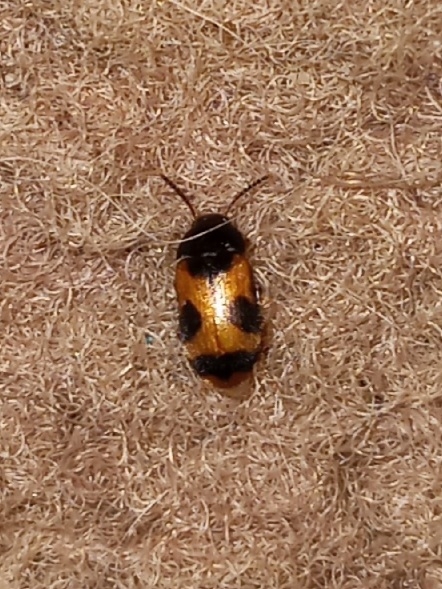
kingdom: Animalia
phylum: Arthropoda
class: Insecta
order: Coleoptera
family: Mycetophagidae
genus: Mycetophagus
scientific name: Mycetophagus punctatus
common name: Hairy fungus beetle
